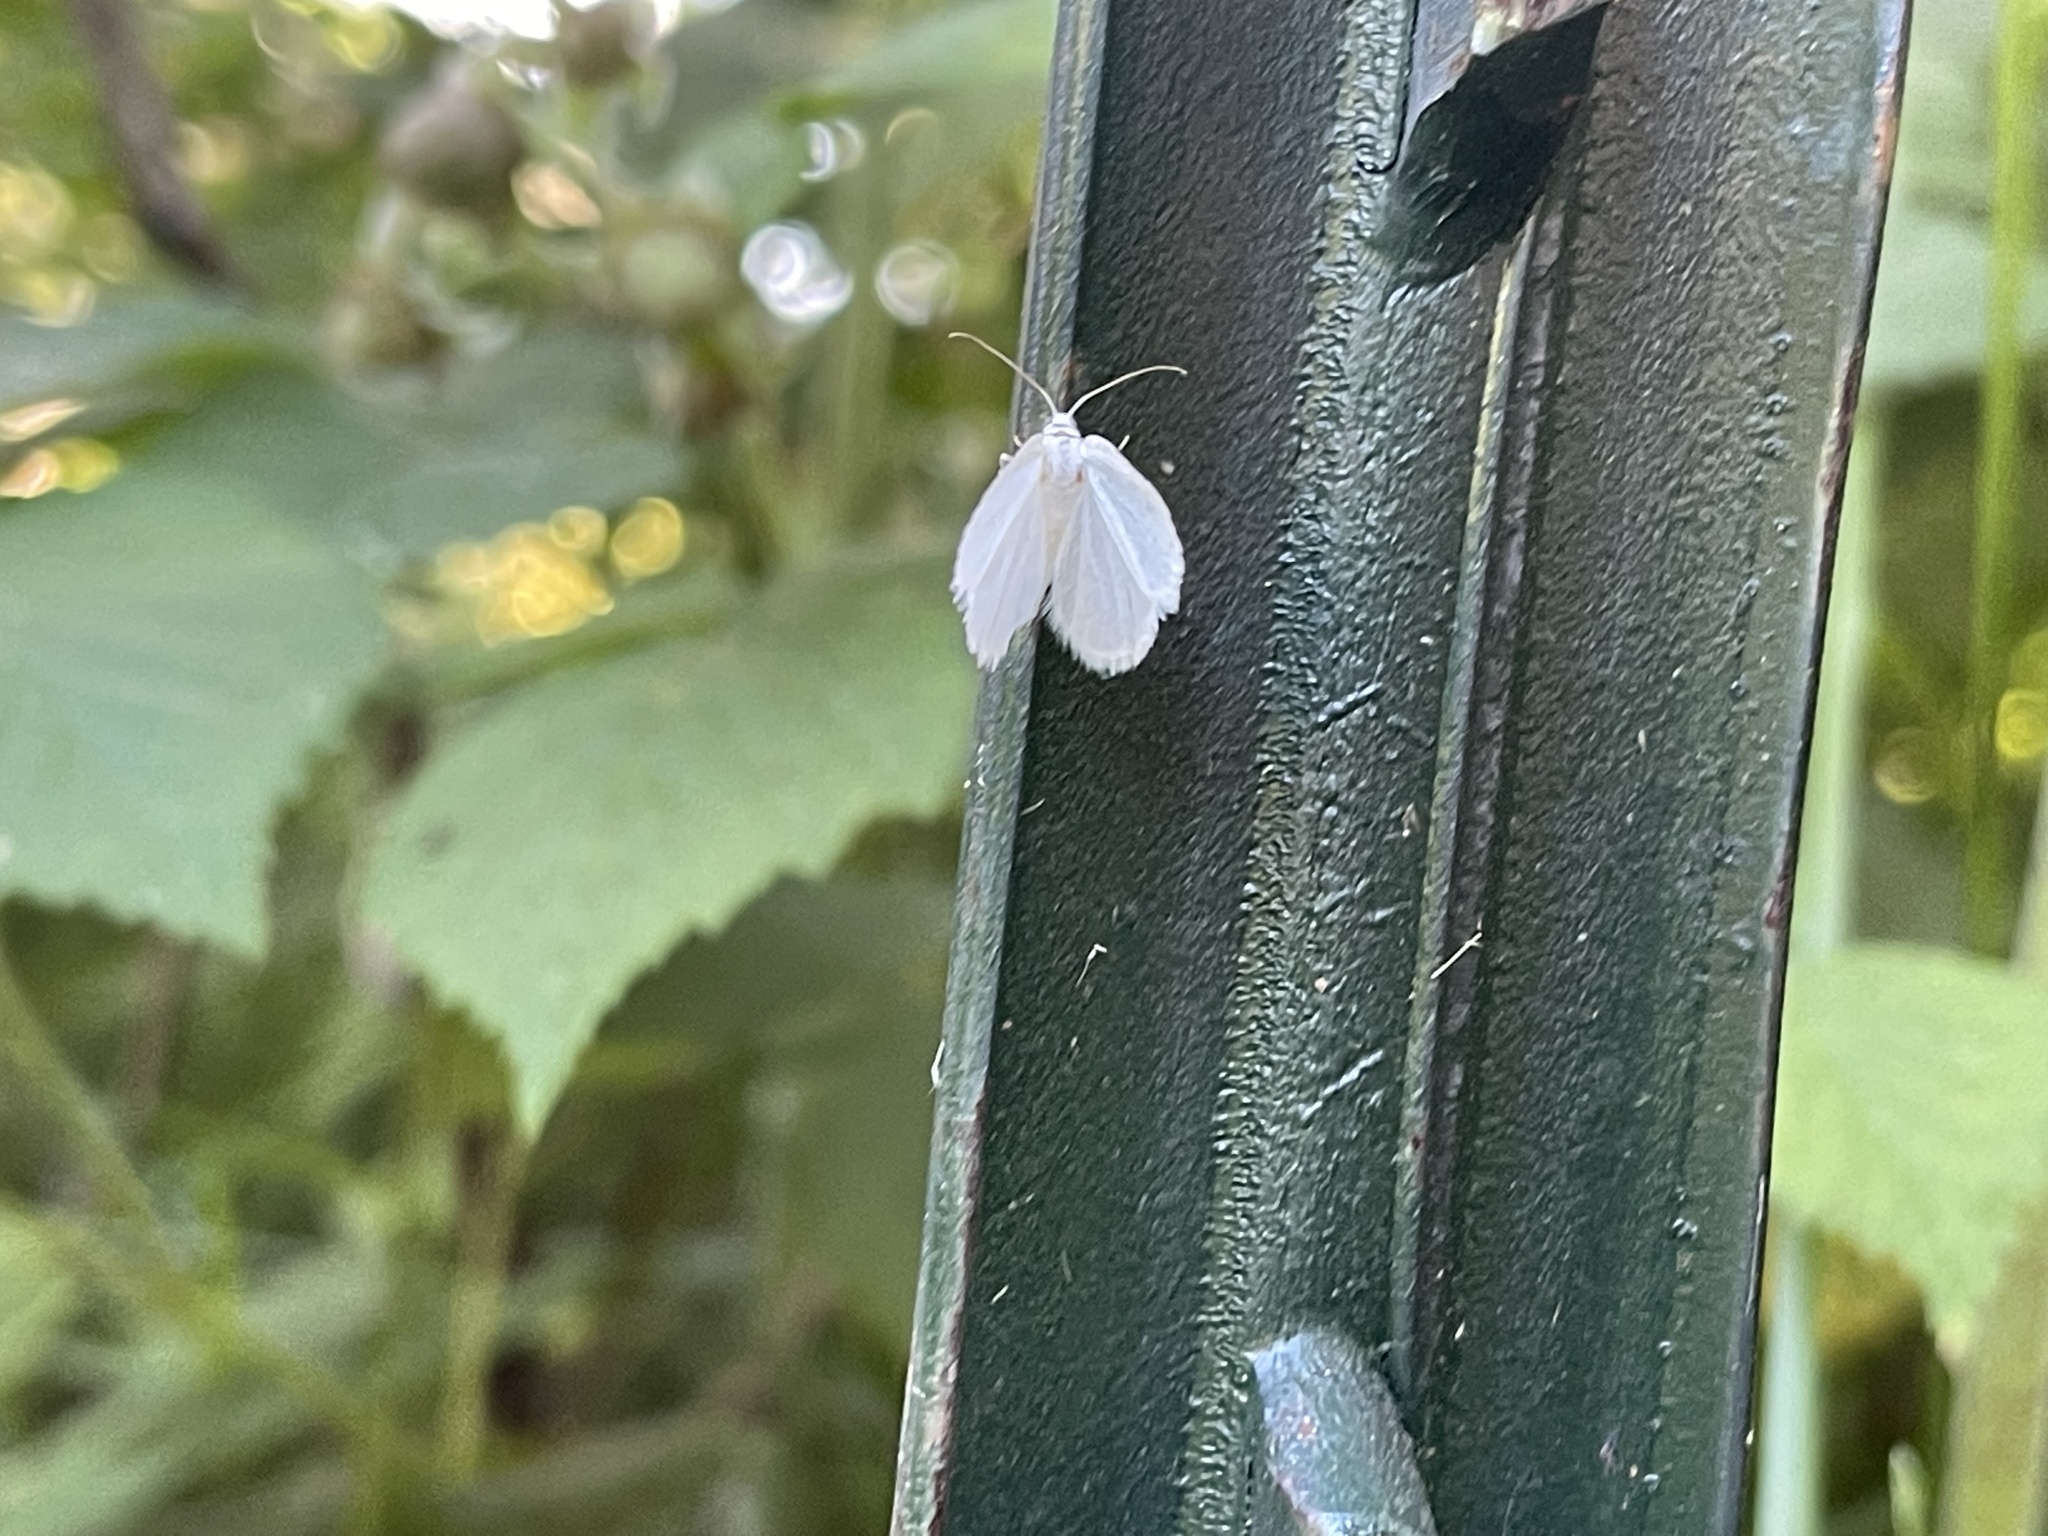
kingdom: Animalia
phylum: Arthropoda
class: Insecta
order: Lepidoptera
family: Geometridae
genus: Lomographa
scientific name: Lomographa vestaliata
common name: White spring moth
